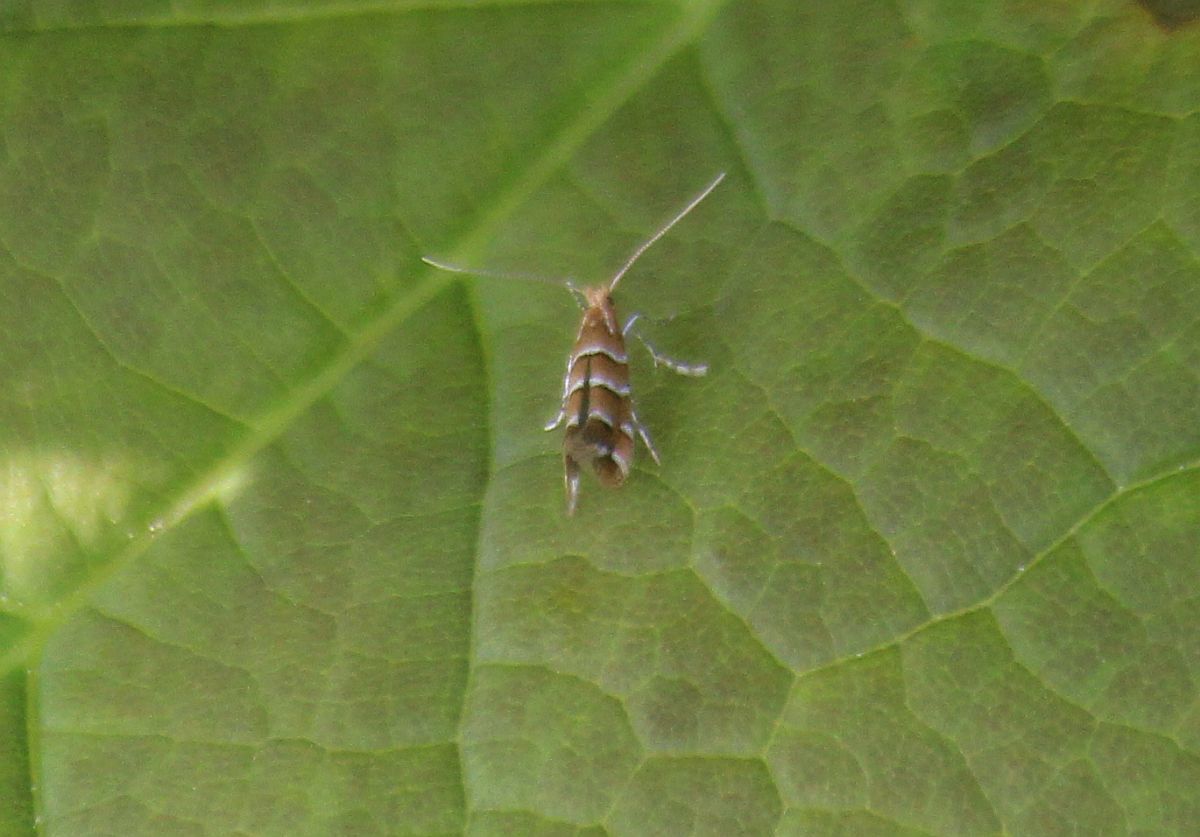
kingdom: Animalia
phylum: Arthropoda
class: Insecta
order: Lepidoptera
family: Gracillariidae
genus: Cameraria
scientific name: Cameraria ohridella
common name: Horse-chestnut leaf-miner
